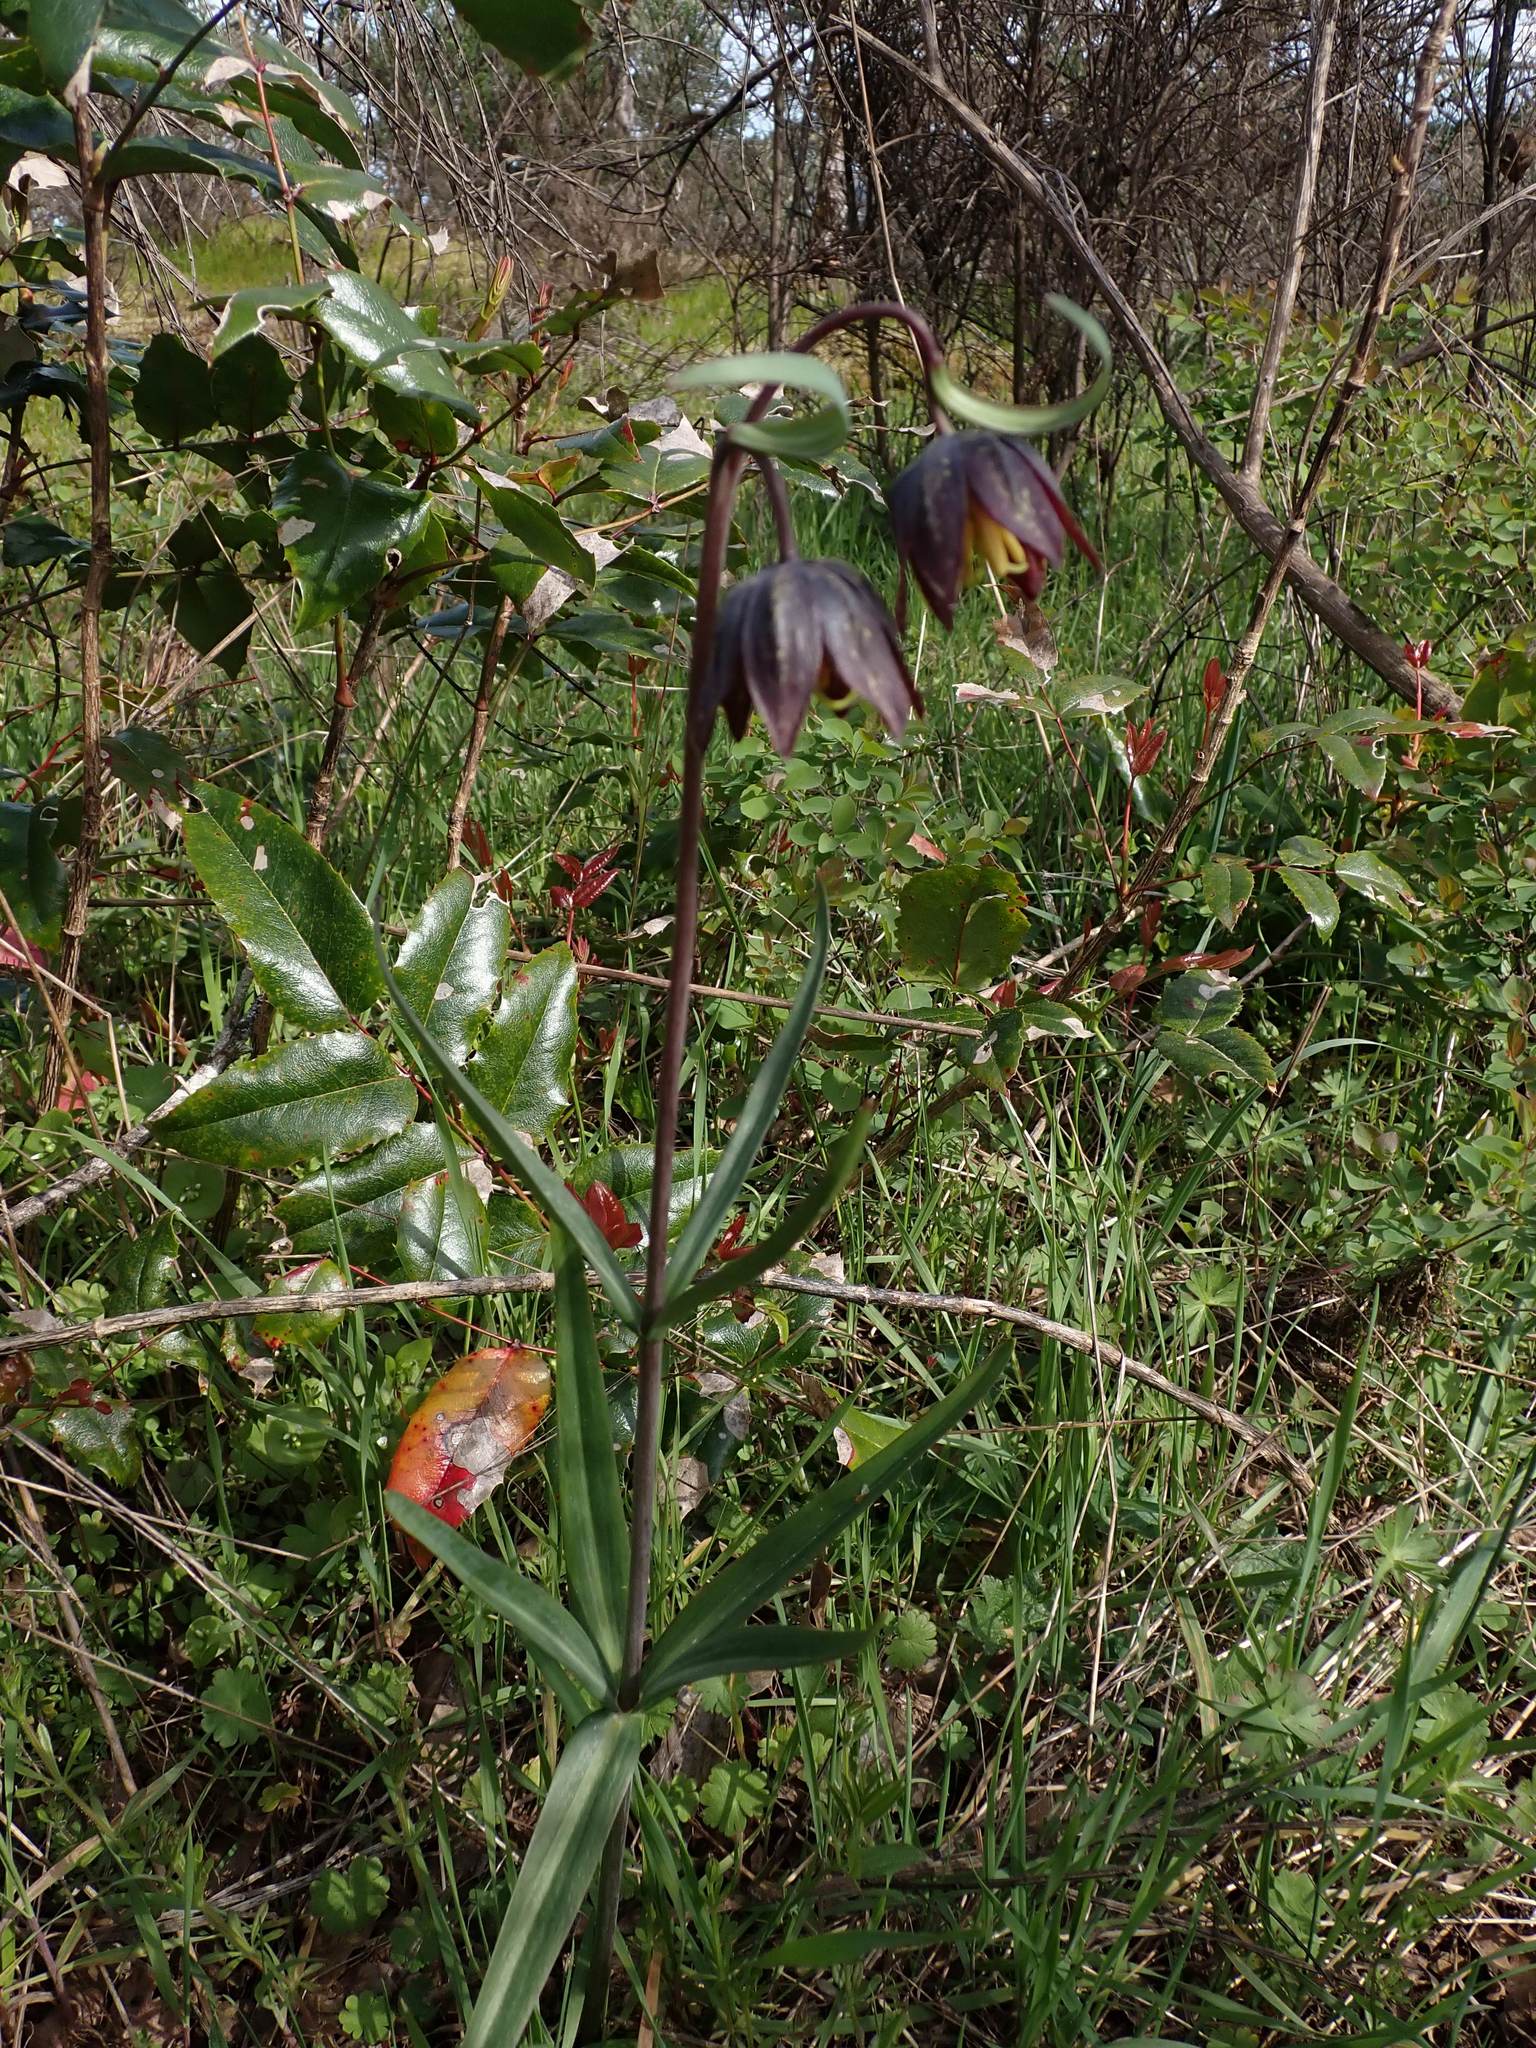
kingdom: Plantae
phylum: Tracheophyta
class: Liliopsida
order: Liliales
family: Liliaceae
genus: Fritillaria
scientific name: Fritillaria affinis
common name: Ojai fritillary
